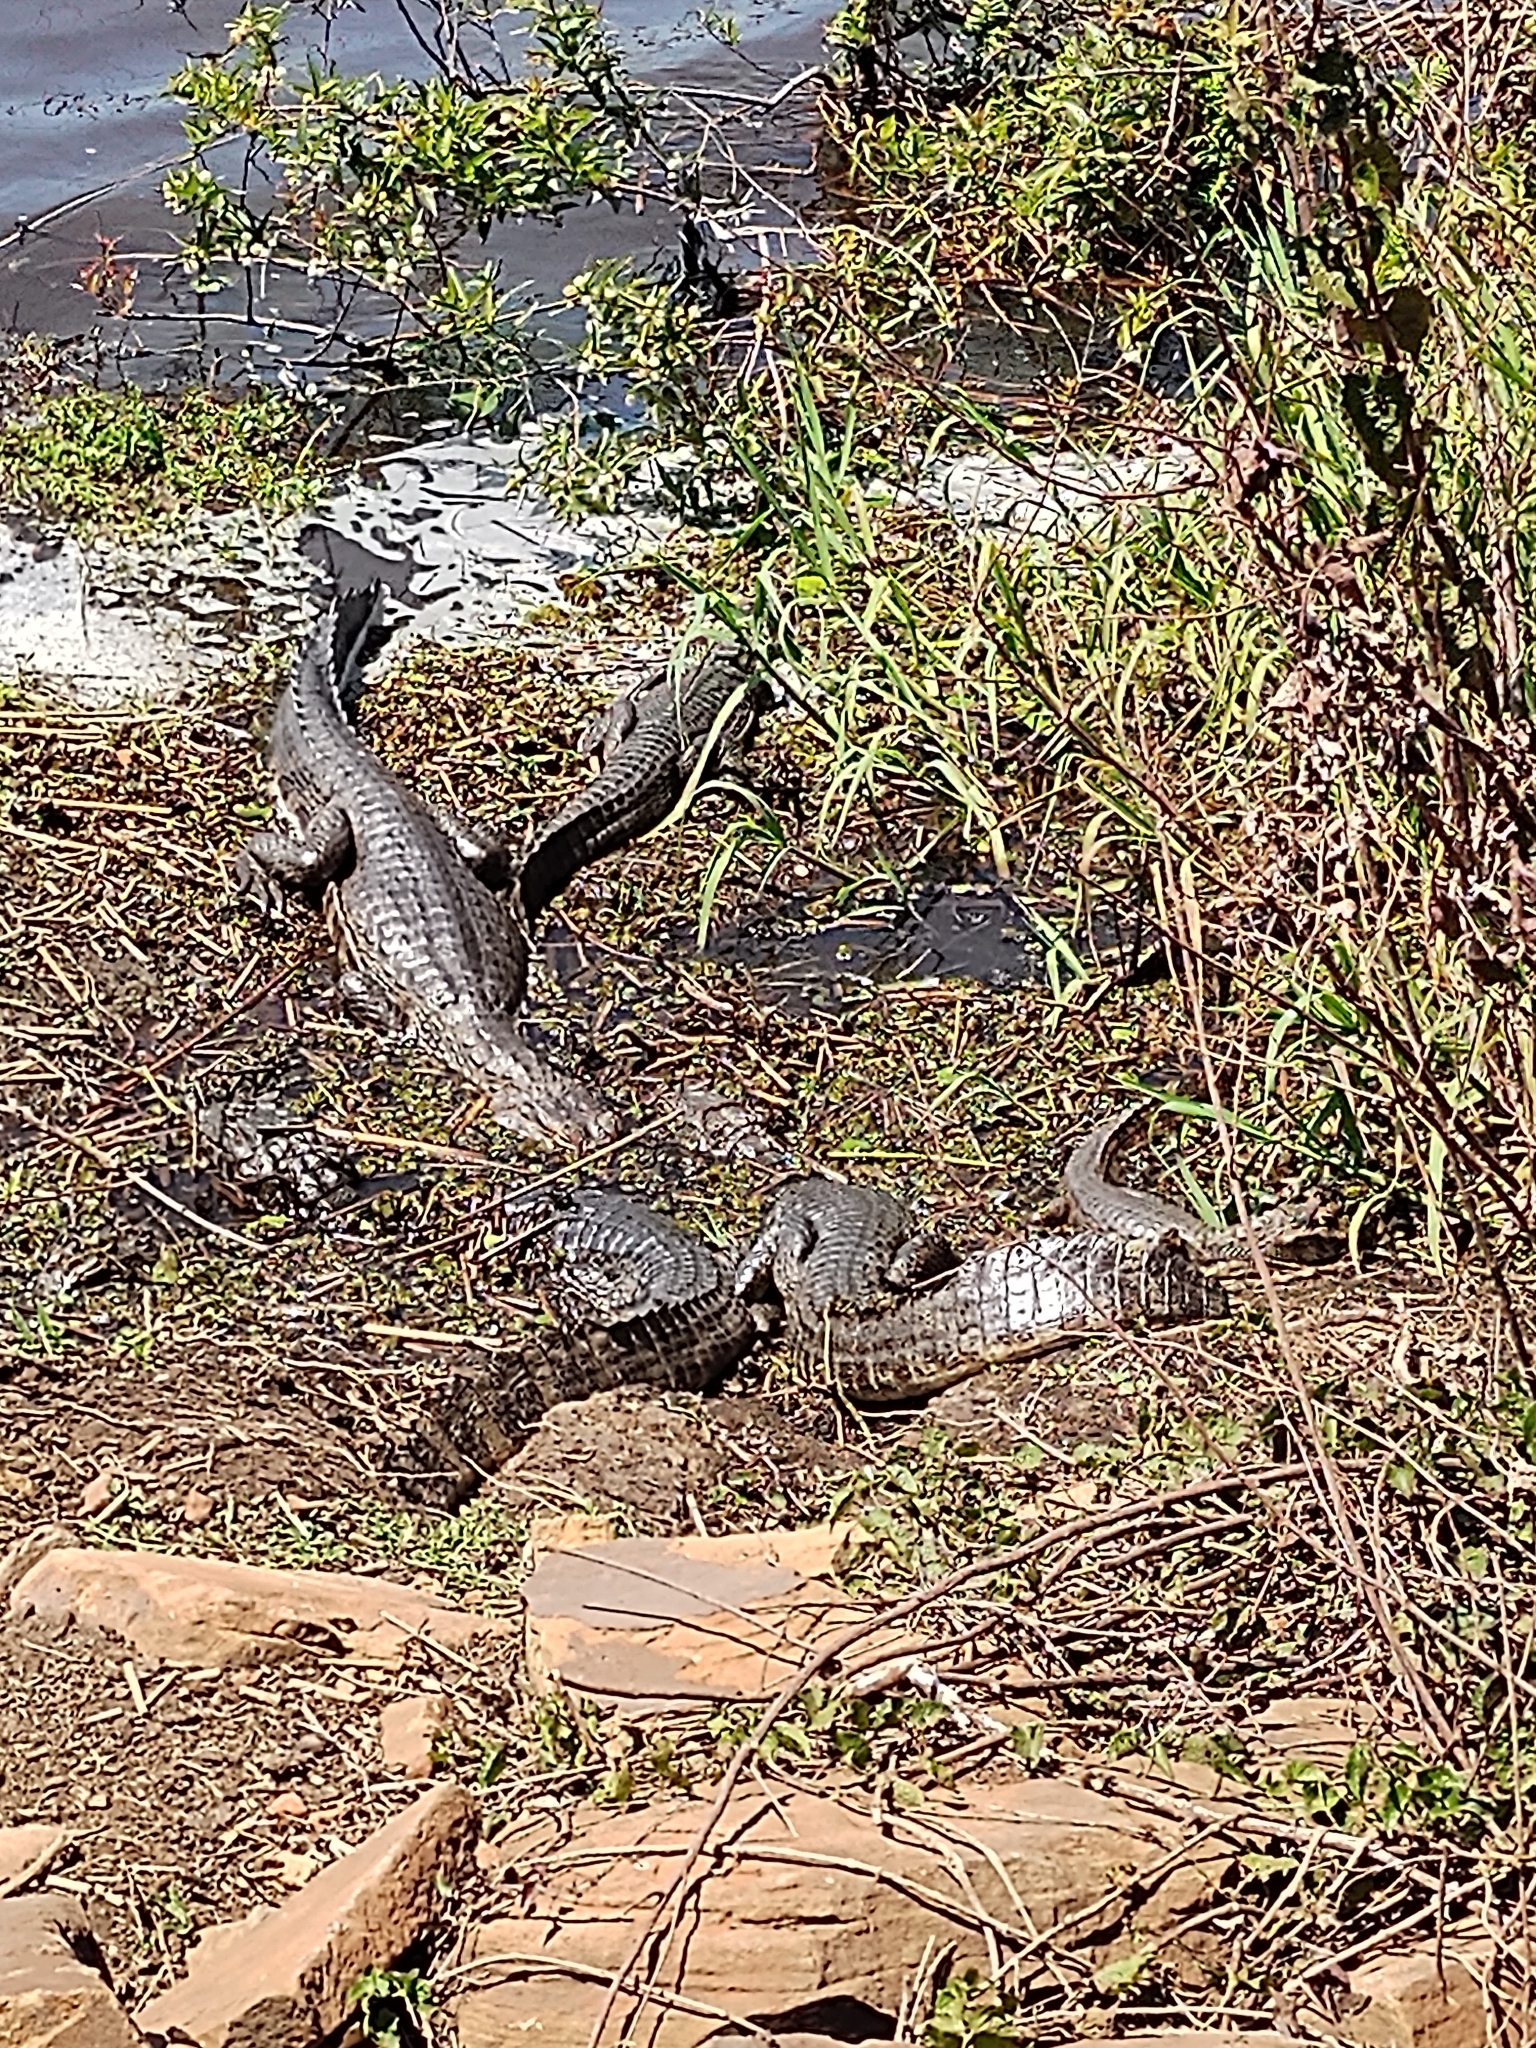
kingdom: Animalia
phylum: Chordata
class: Crocodylia
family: Alligatoridae
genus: Caiman
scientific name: Caiman yacare
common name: Yacare caiman
